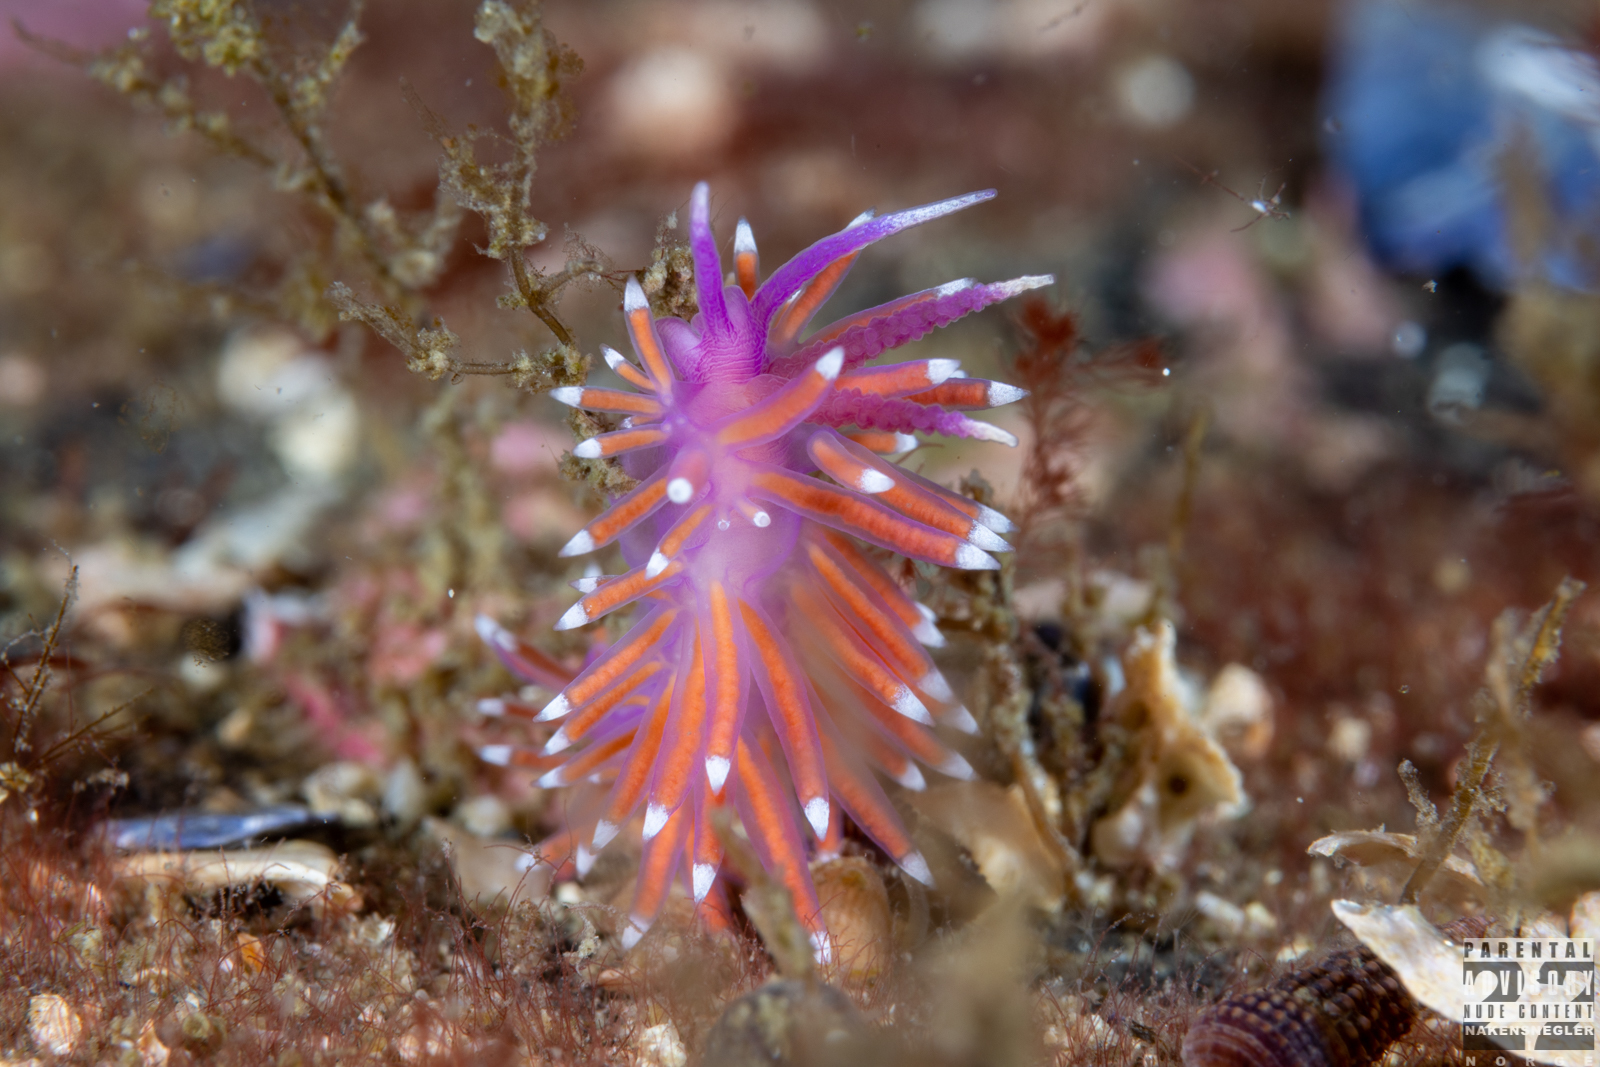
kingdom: Animalia
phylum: Mollusca
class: Gastropoda
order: Nudibranchia
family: Flabellinidae
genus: Edmundsella
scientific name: Edmundsella pedata
